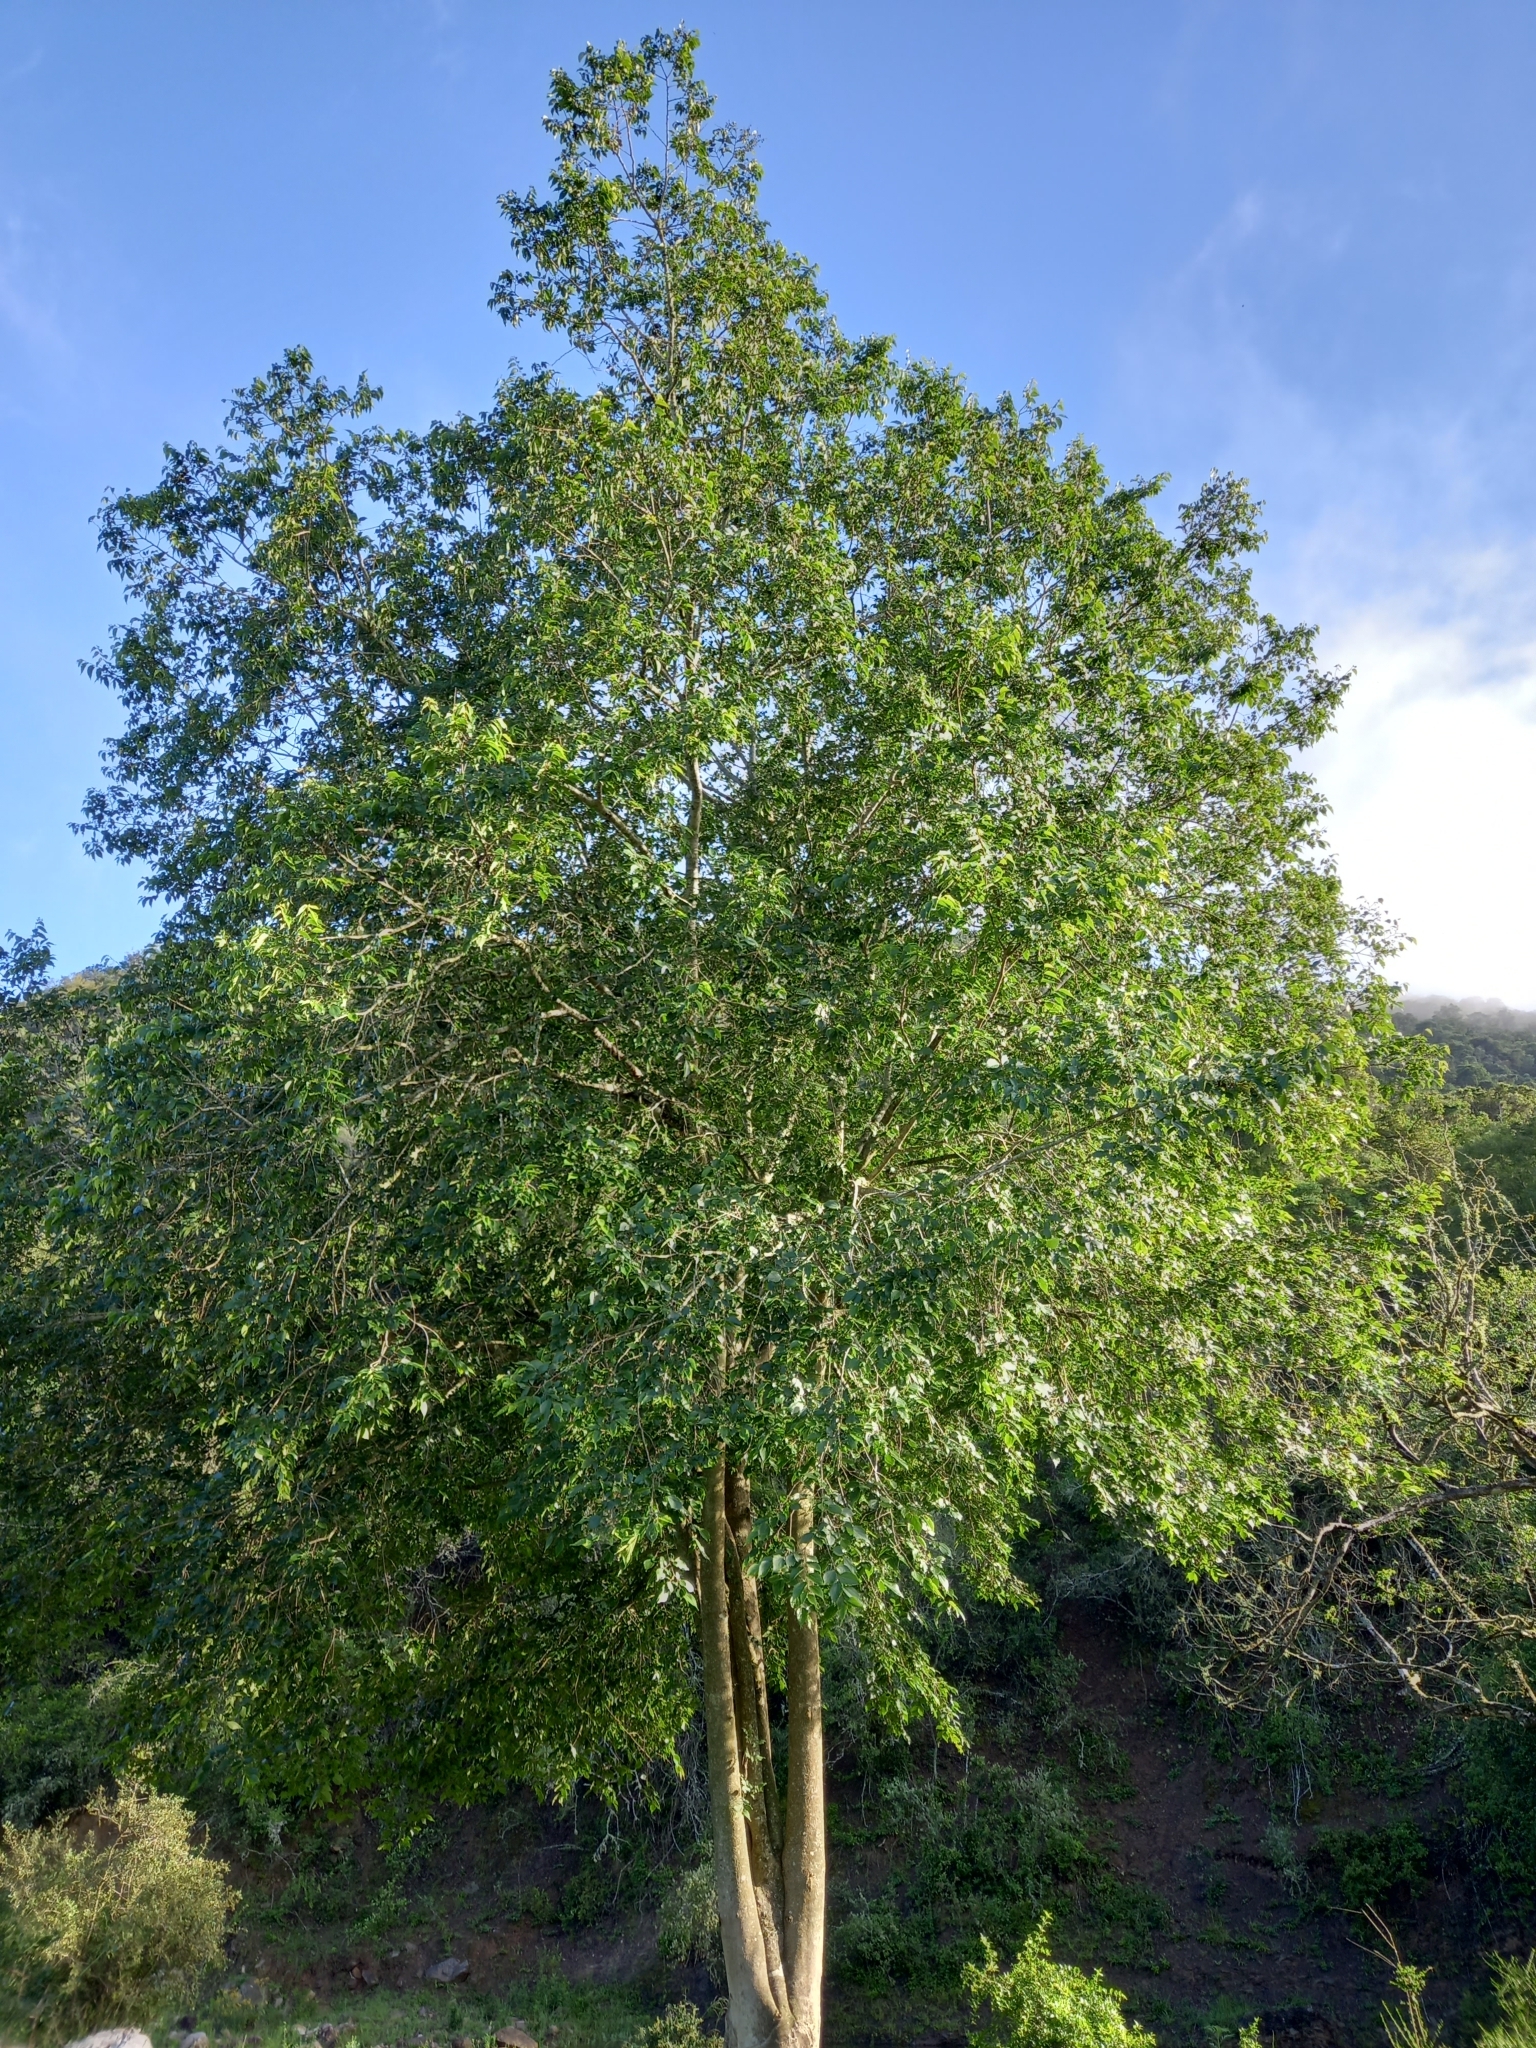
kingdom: Plantae
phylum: Tracheophyta
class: Magnoliopsida
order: Rosales
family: Cannabaceae
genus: Celtis
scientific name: Celtis africana
